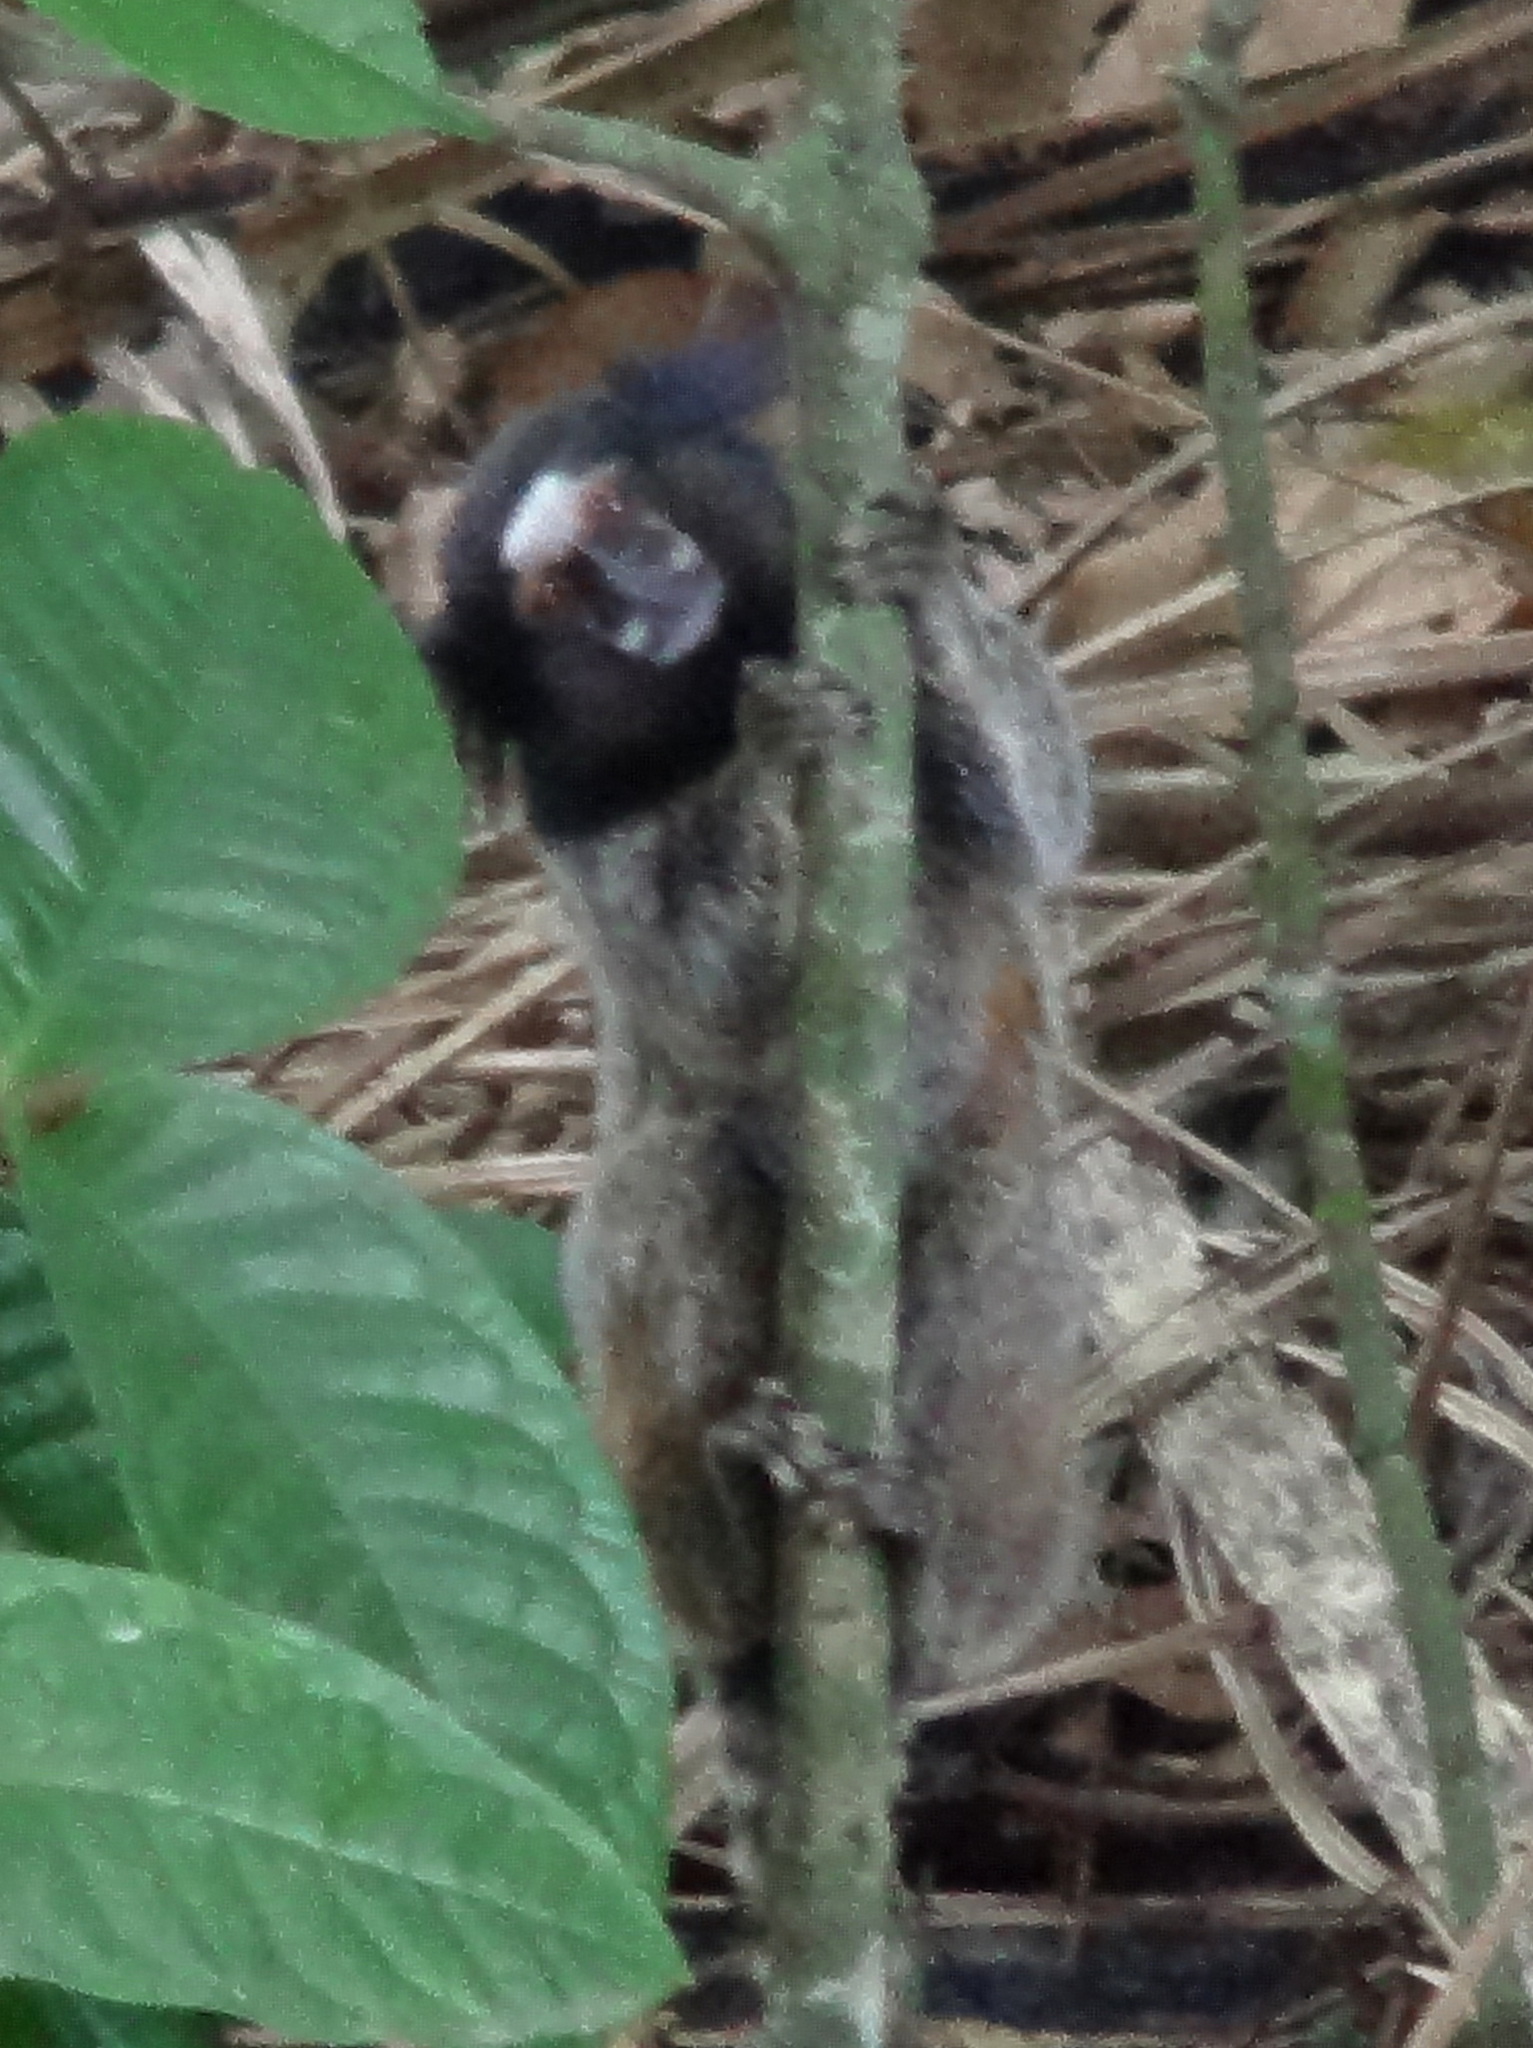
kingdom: Animalia
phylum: Chordata
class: Mammalia
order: Primates
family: Callitrichidae
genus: Callithrix
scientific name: Callithrix penicillata
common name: Black-tufted marmoset
